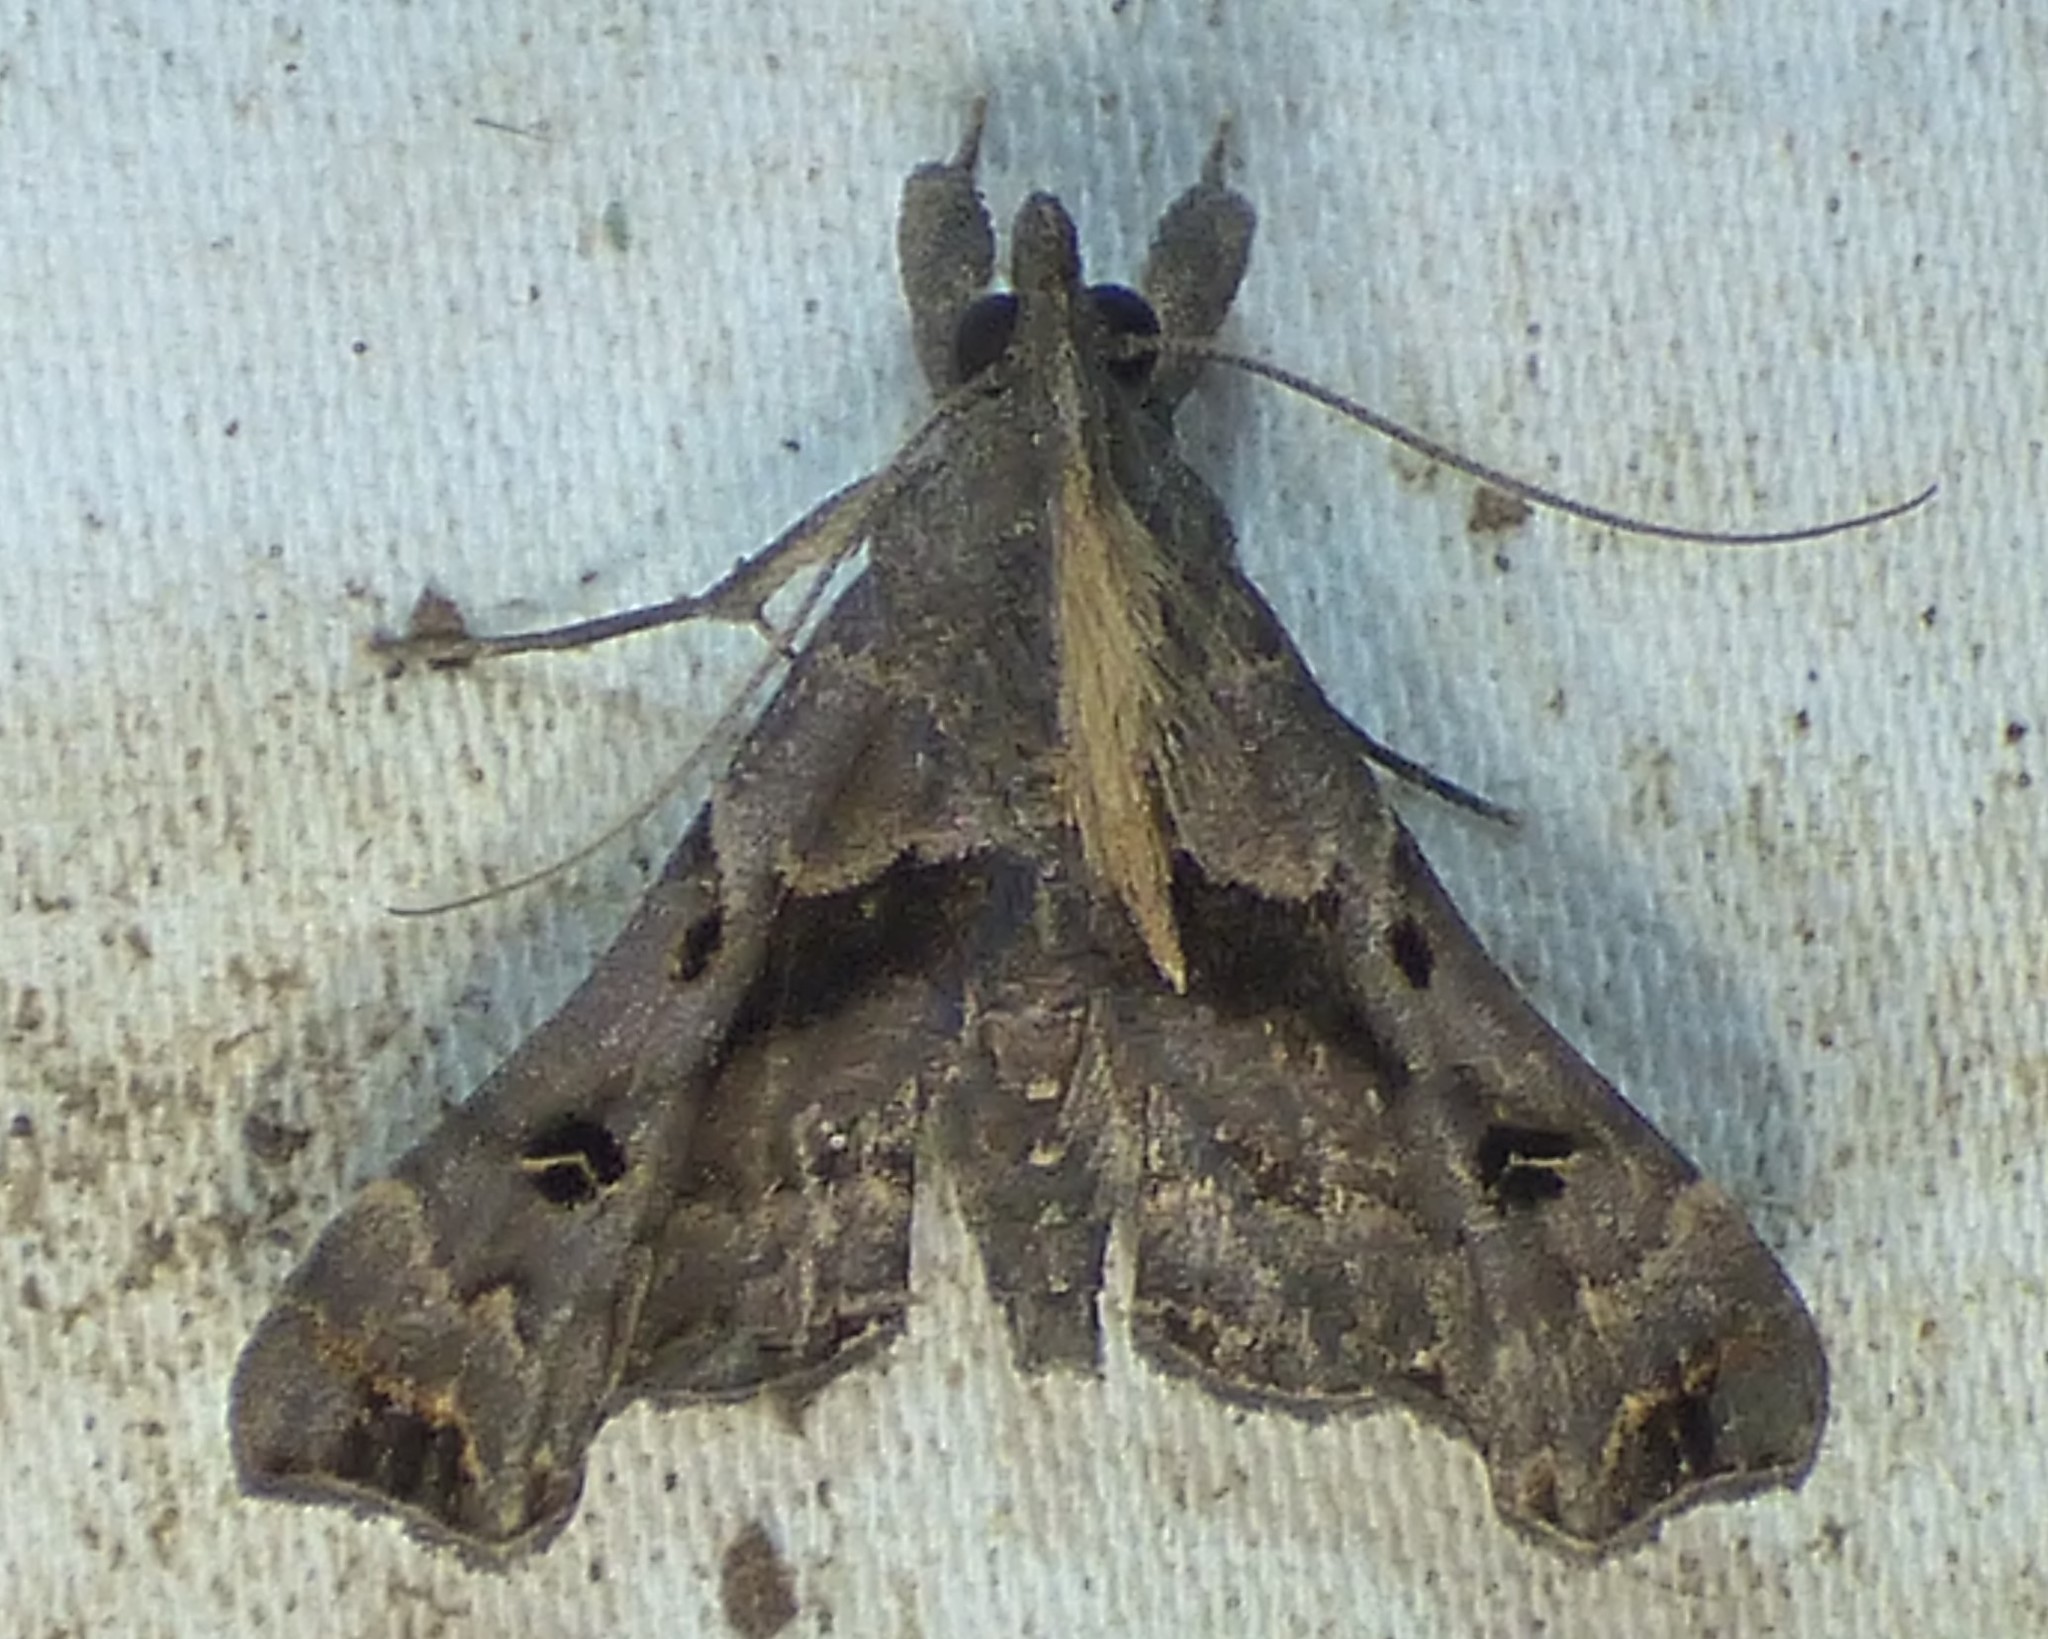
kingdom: Animalia
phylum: Arthropoda
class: Insecta
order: Lepidoptera
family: Erebidae
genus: Palthis
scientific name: Palthis asopialis
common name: Faint-spotted palthis moth
